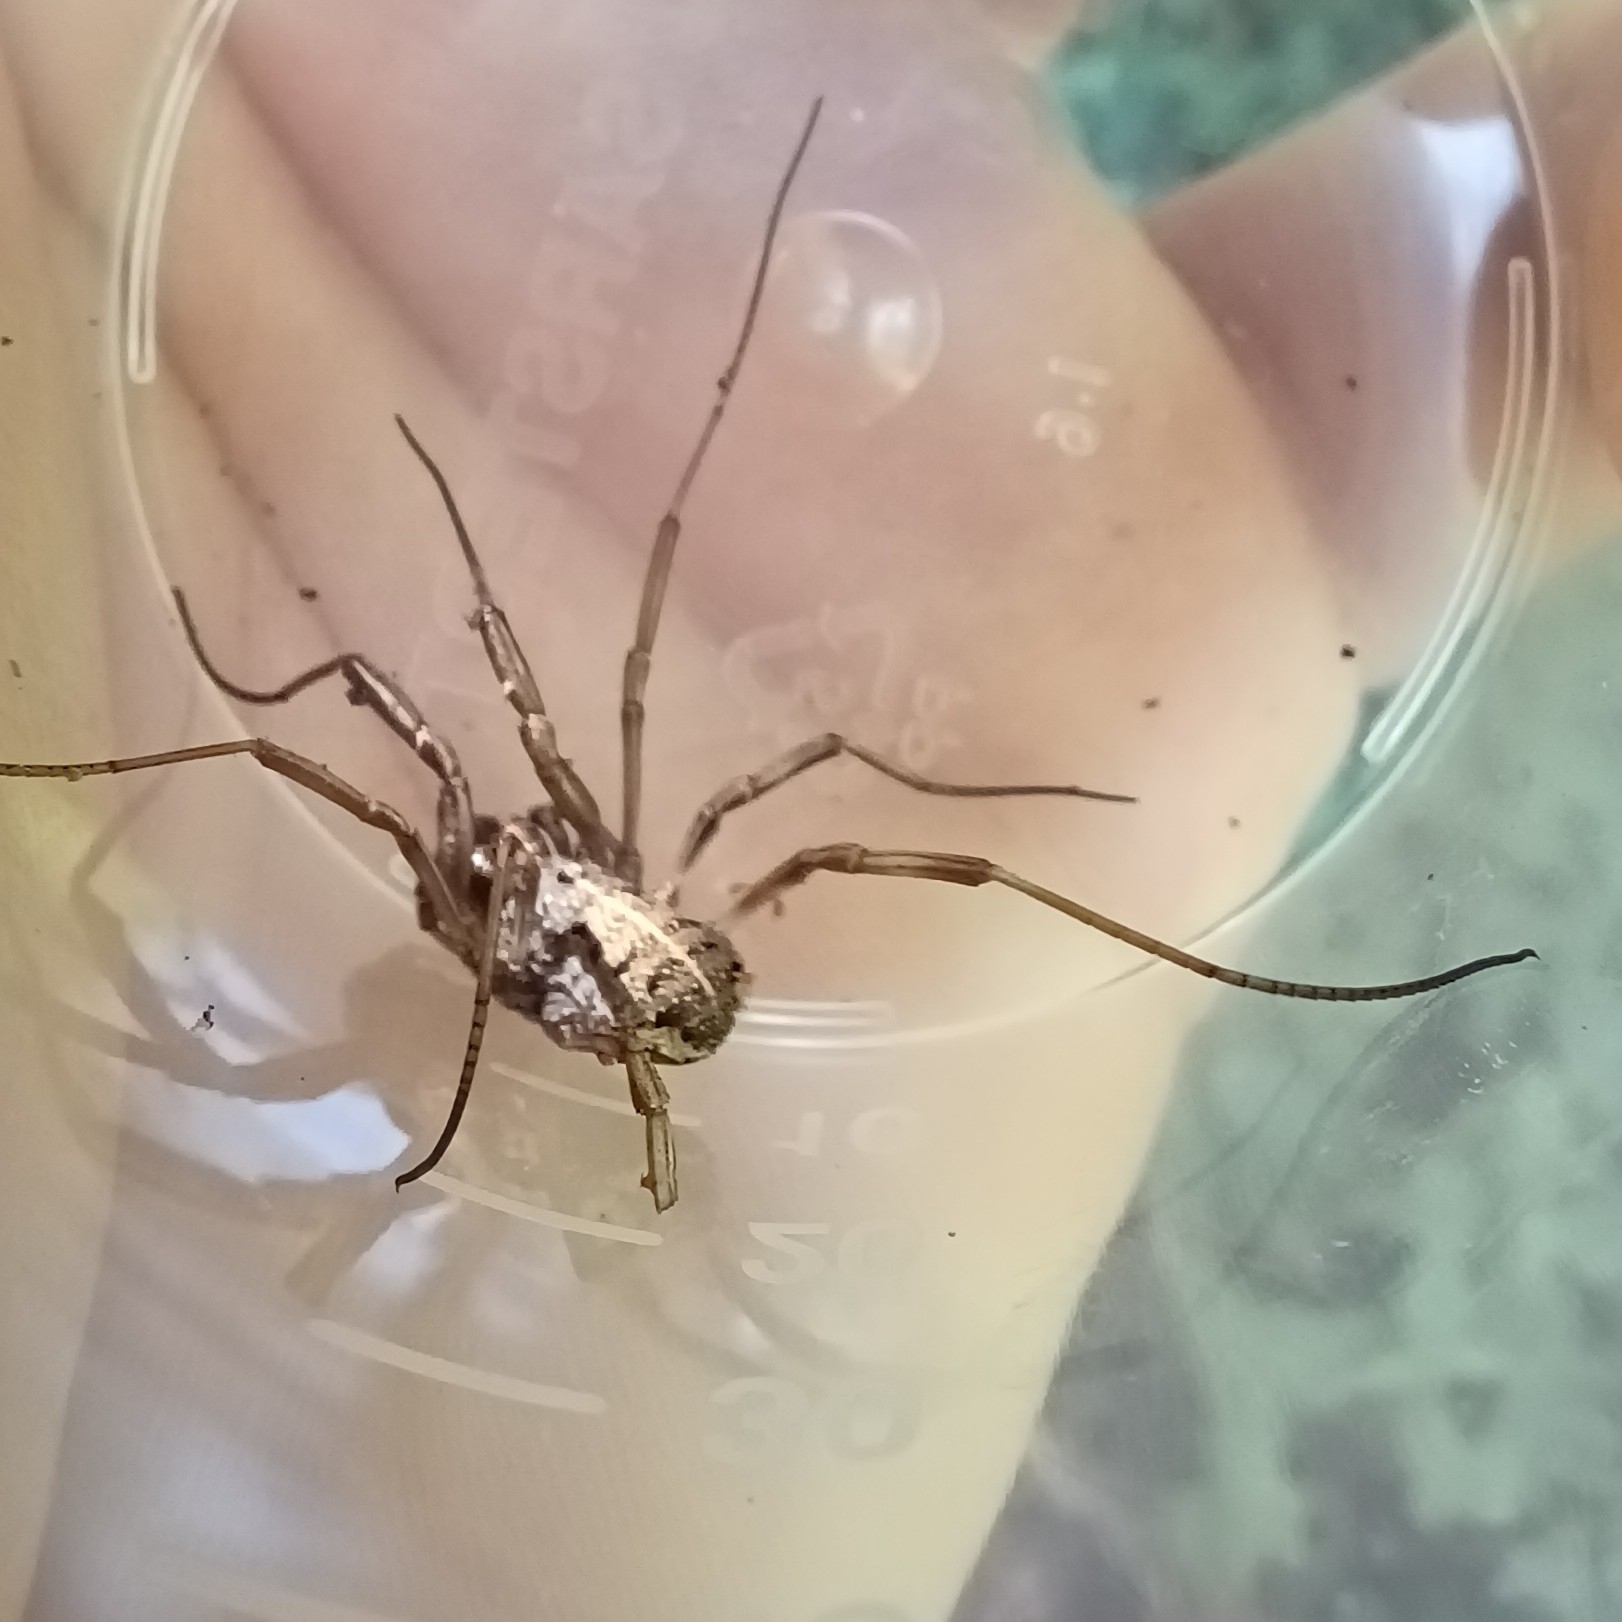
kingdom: Animalia
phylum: Arthropoda
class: Arachnida
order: Opiliones
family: Phalangiidae
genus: Zachaeus
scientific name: Zachaeus crista
